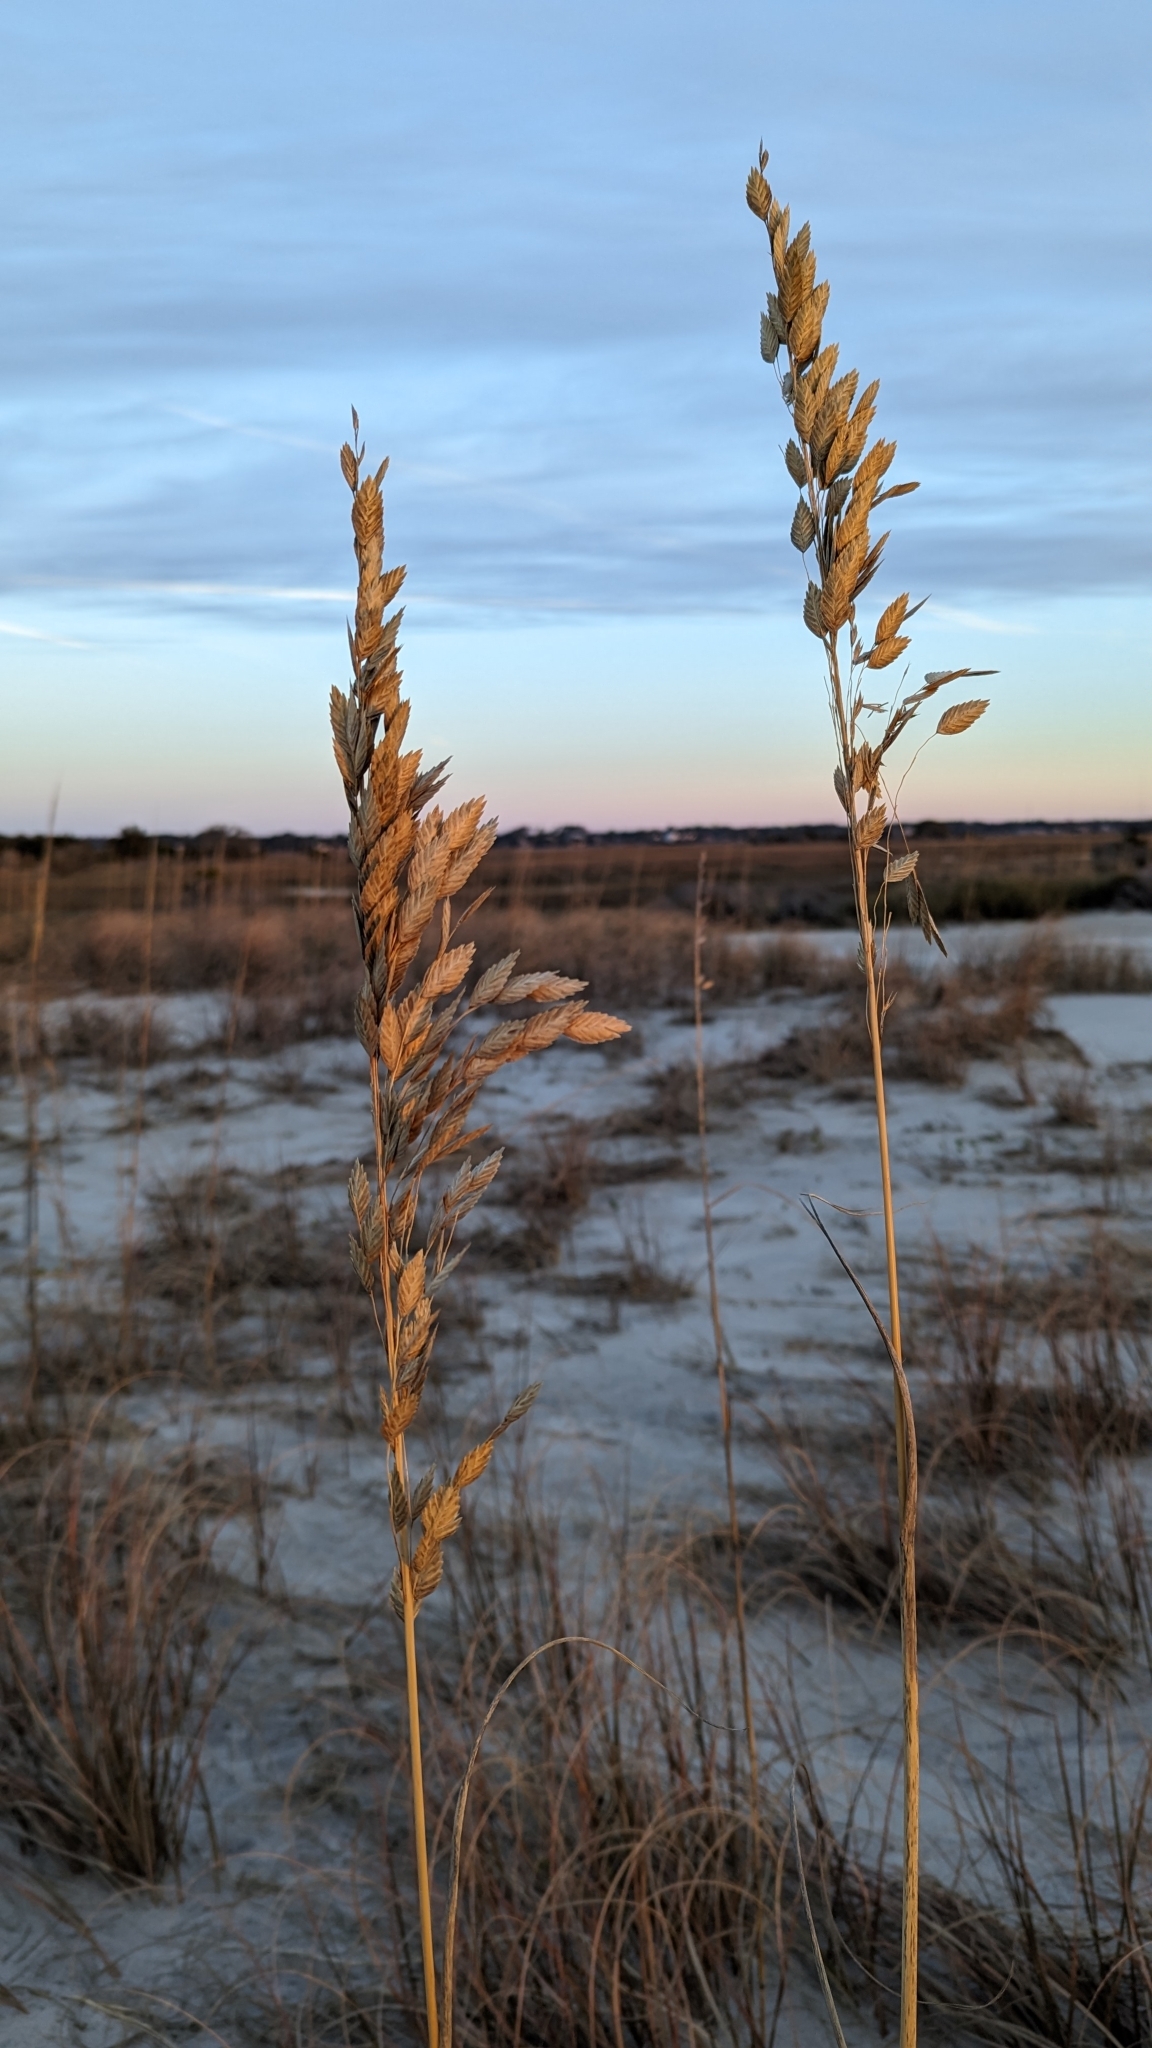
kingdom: Plantae
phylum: Tracheophyta
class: Liliopsida
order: Poales
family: Poaceae
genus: Uniola
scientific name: Uniola paniculata
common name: Seaside-oats
